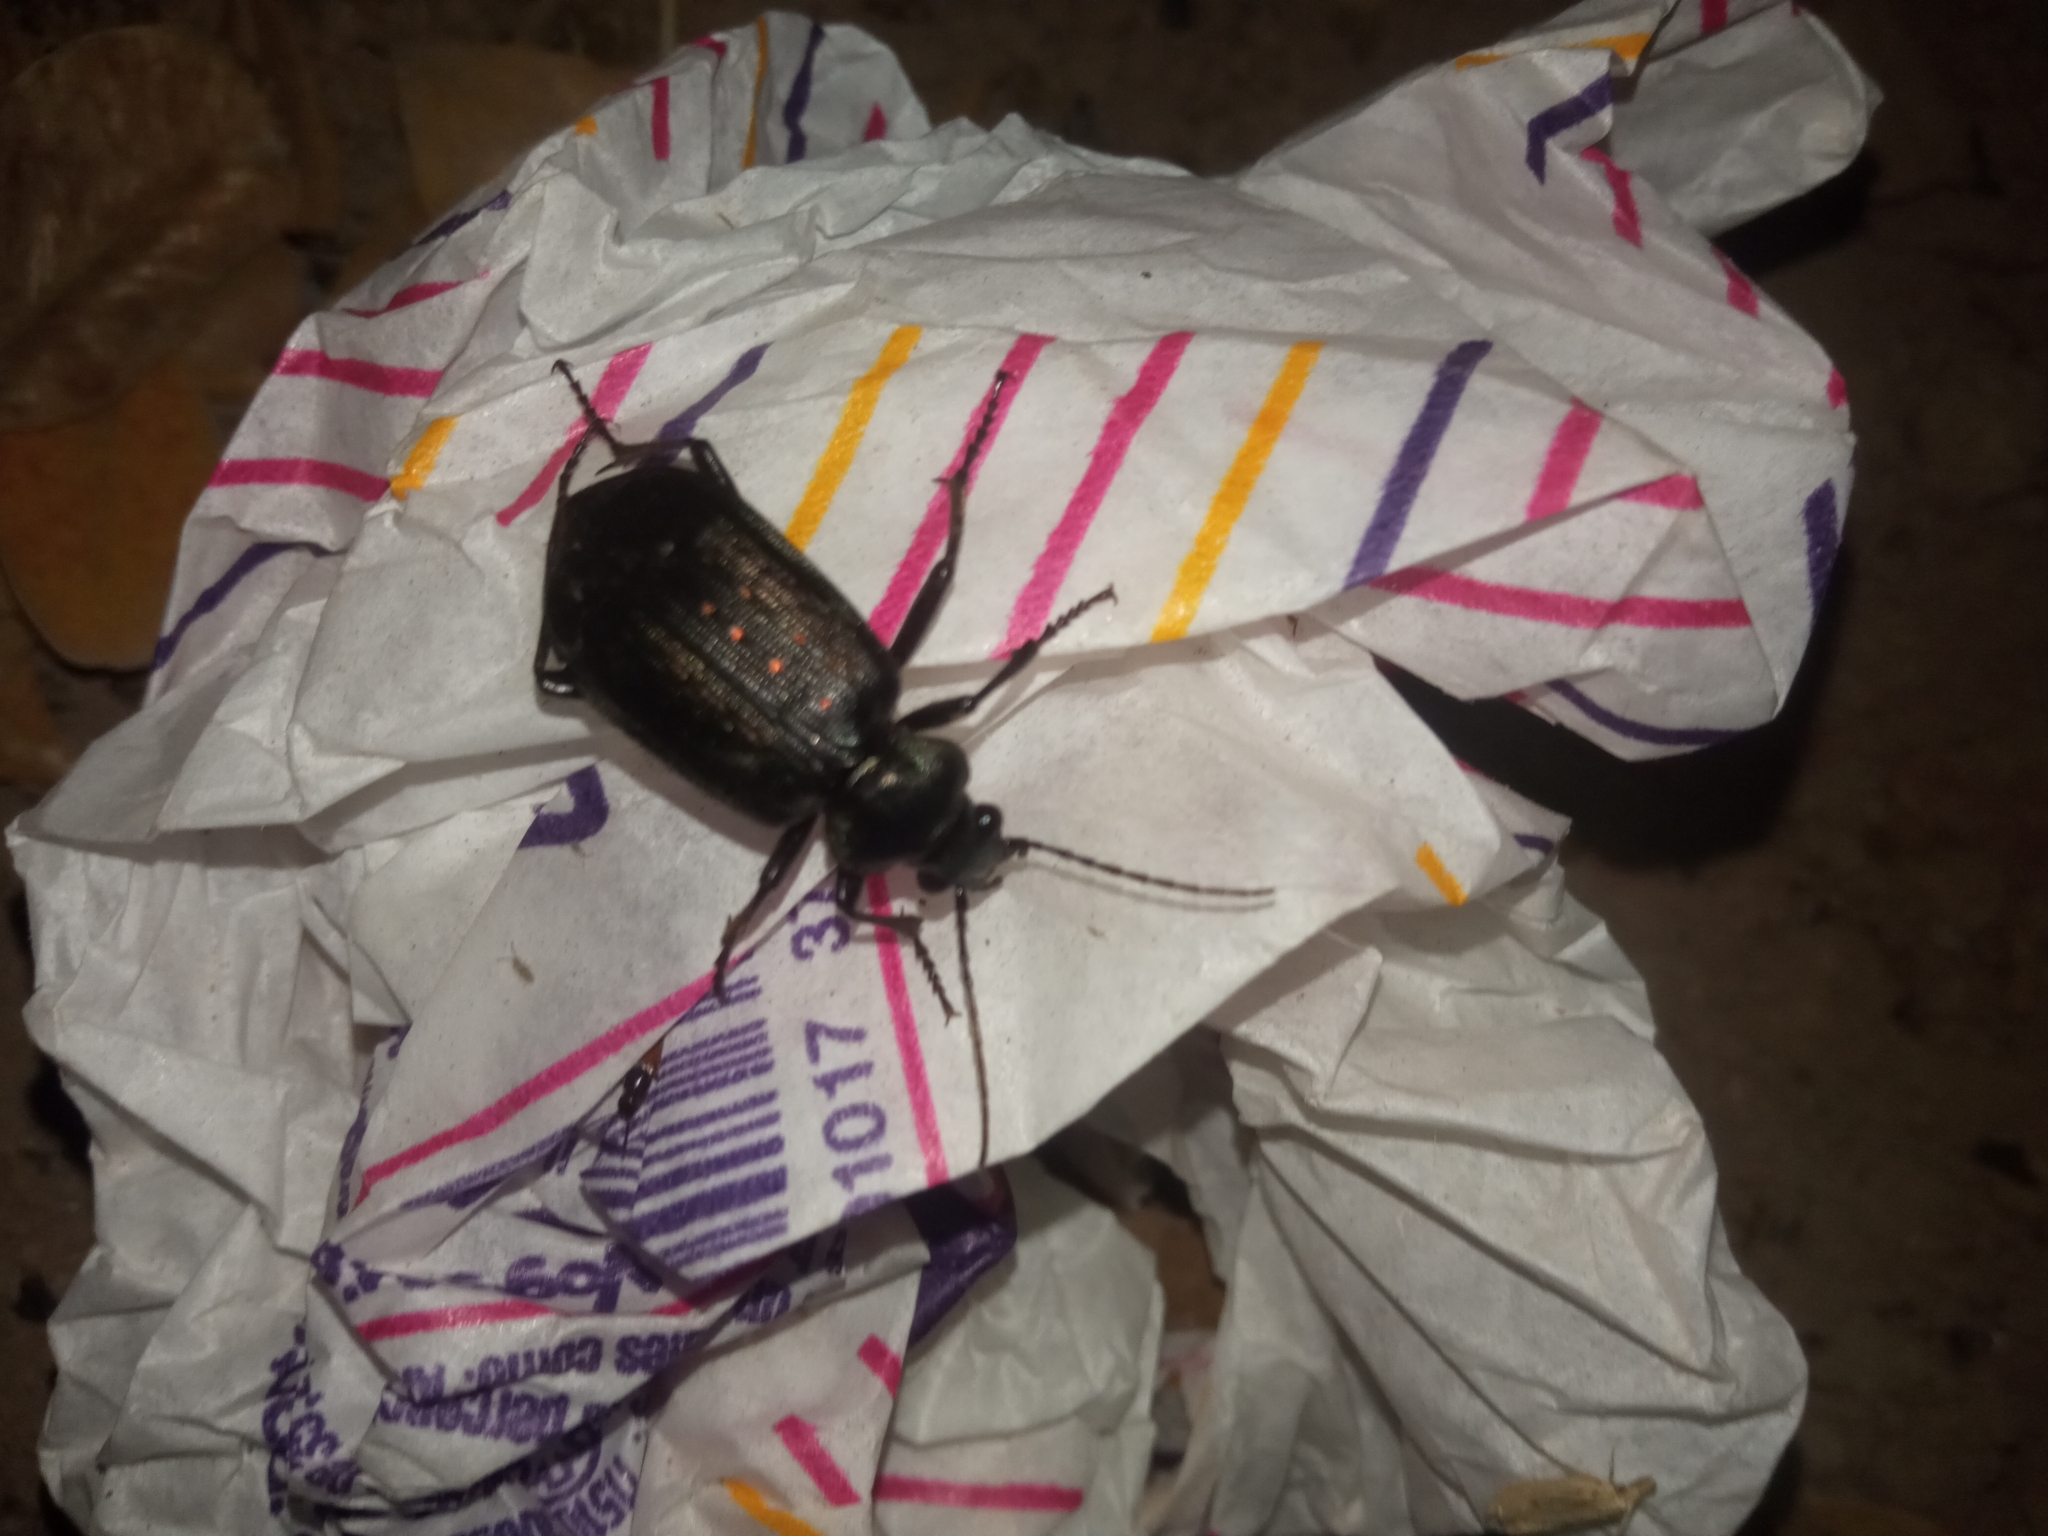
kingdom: Animalia
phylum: Arthropoda
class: Insecta
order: Coleoptera
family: Carabidae
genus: Calosoma
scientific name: Calosoma sayi
